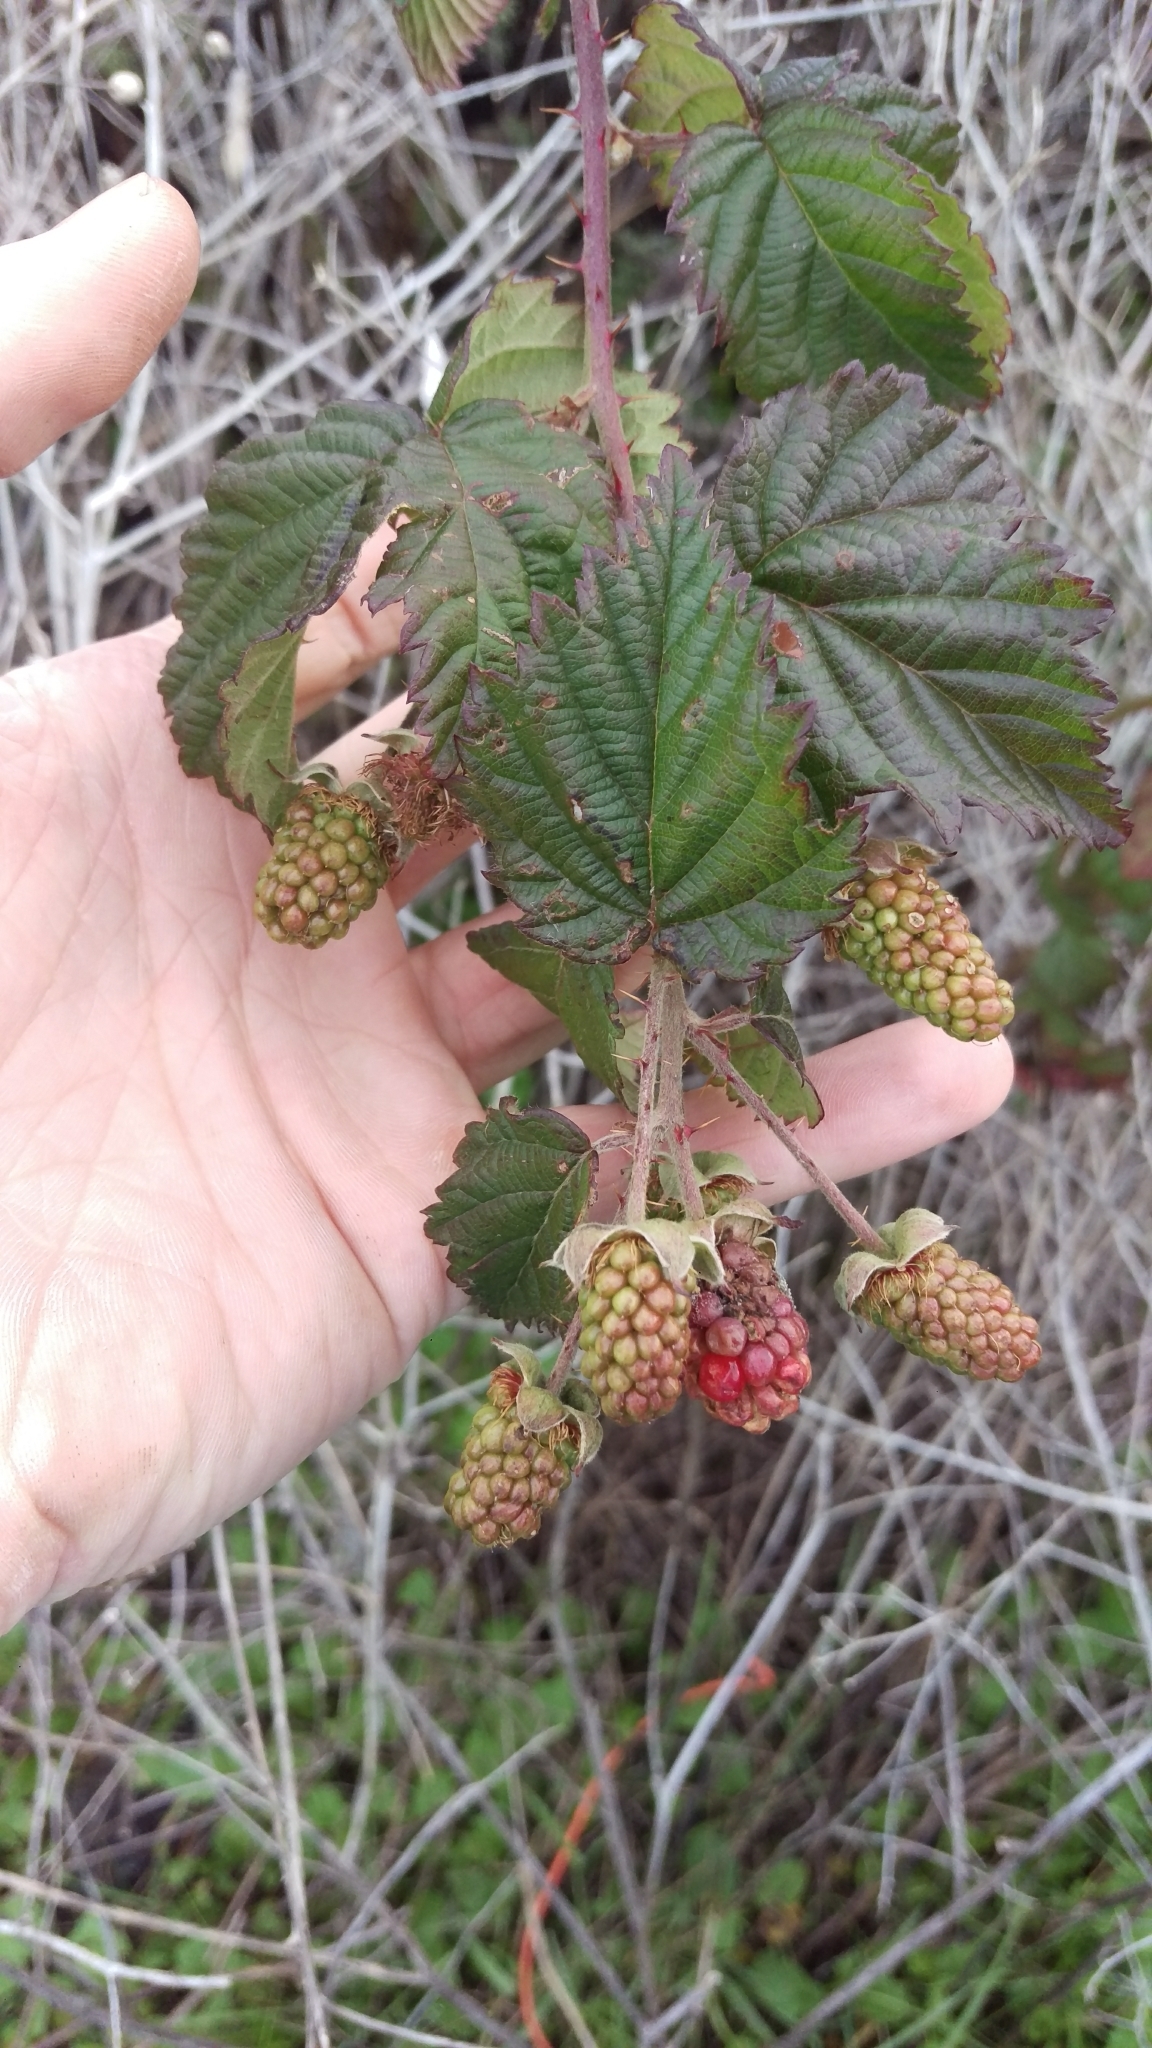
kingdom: Plantae
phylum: Tracheophyta
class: Magnoliopsida
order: Rosales
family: Rosaceae
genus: Rubus
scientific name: Rubus armeniacus
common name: Himalayan blackberry
